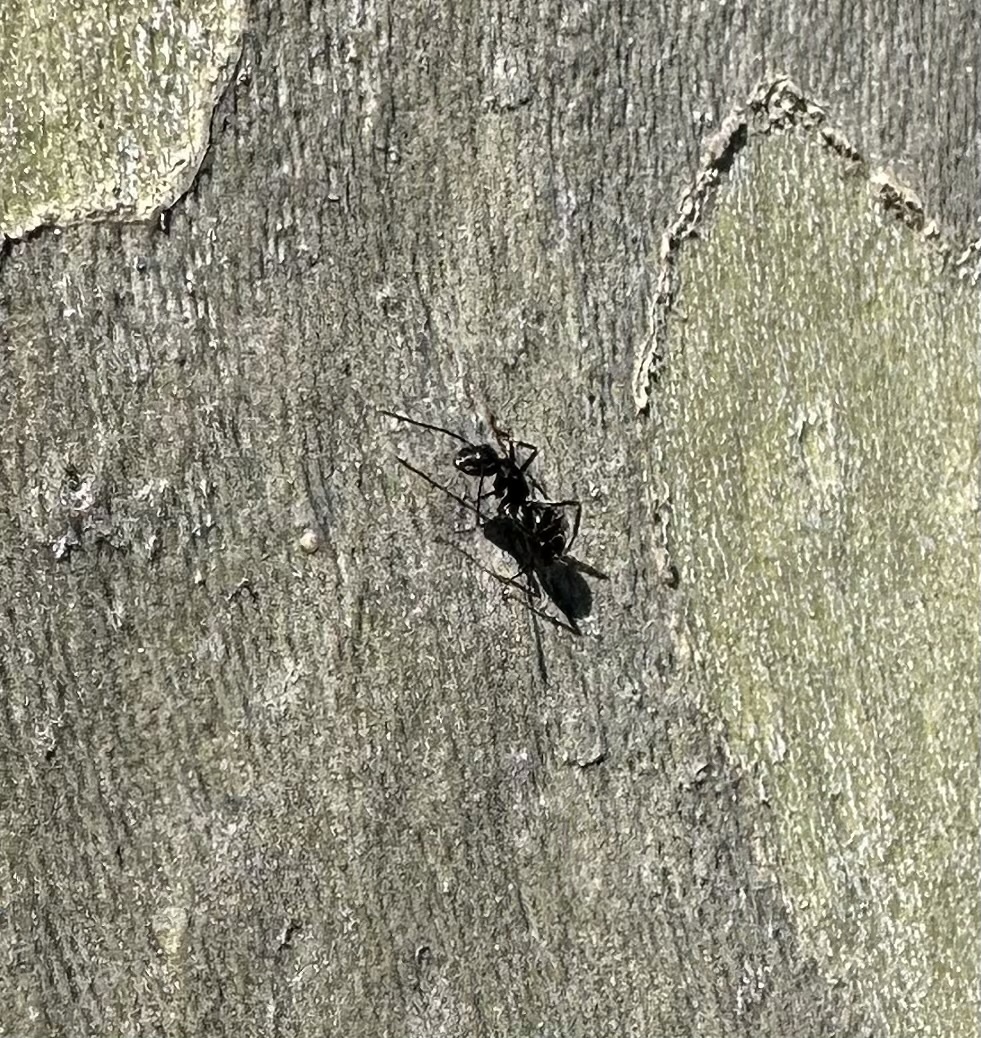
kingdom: Animalia
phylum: Arthropoda
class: Insecta
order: Hymenoptera
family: Formicidae
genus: Camponotus
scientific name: Camponotus pennsylvanicus
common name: Black carpenter ant
